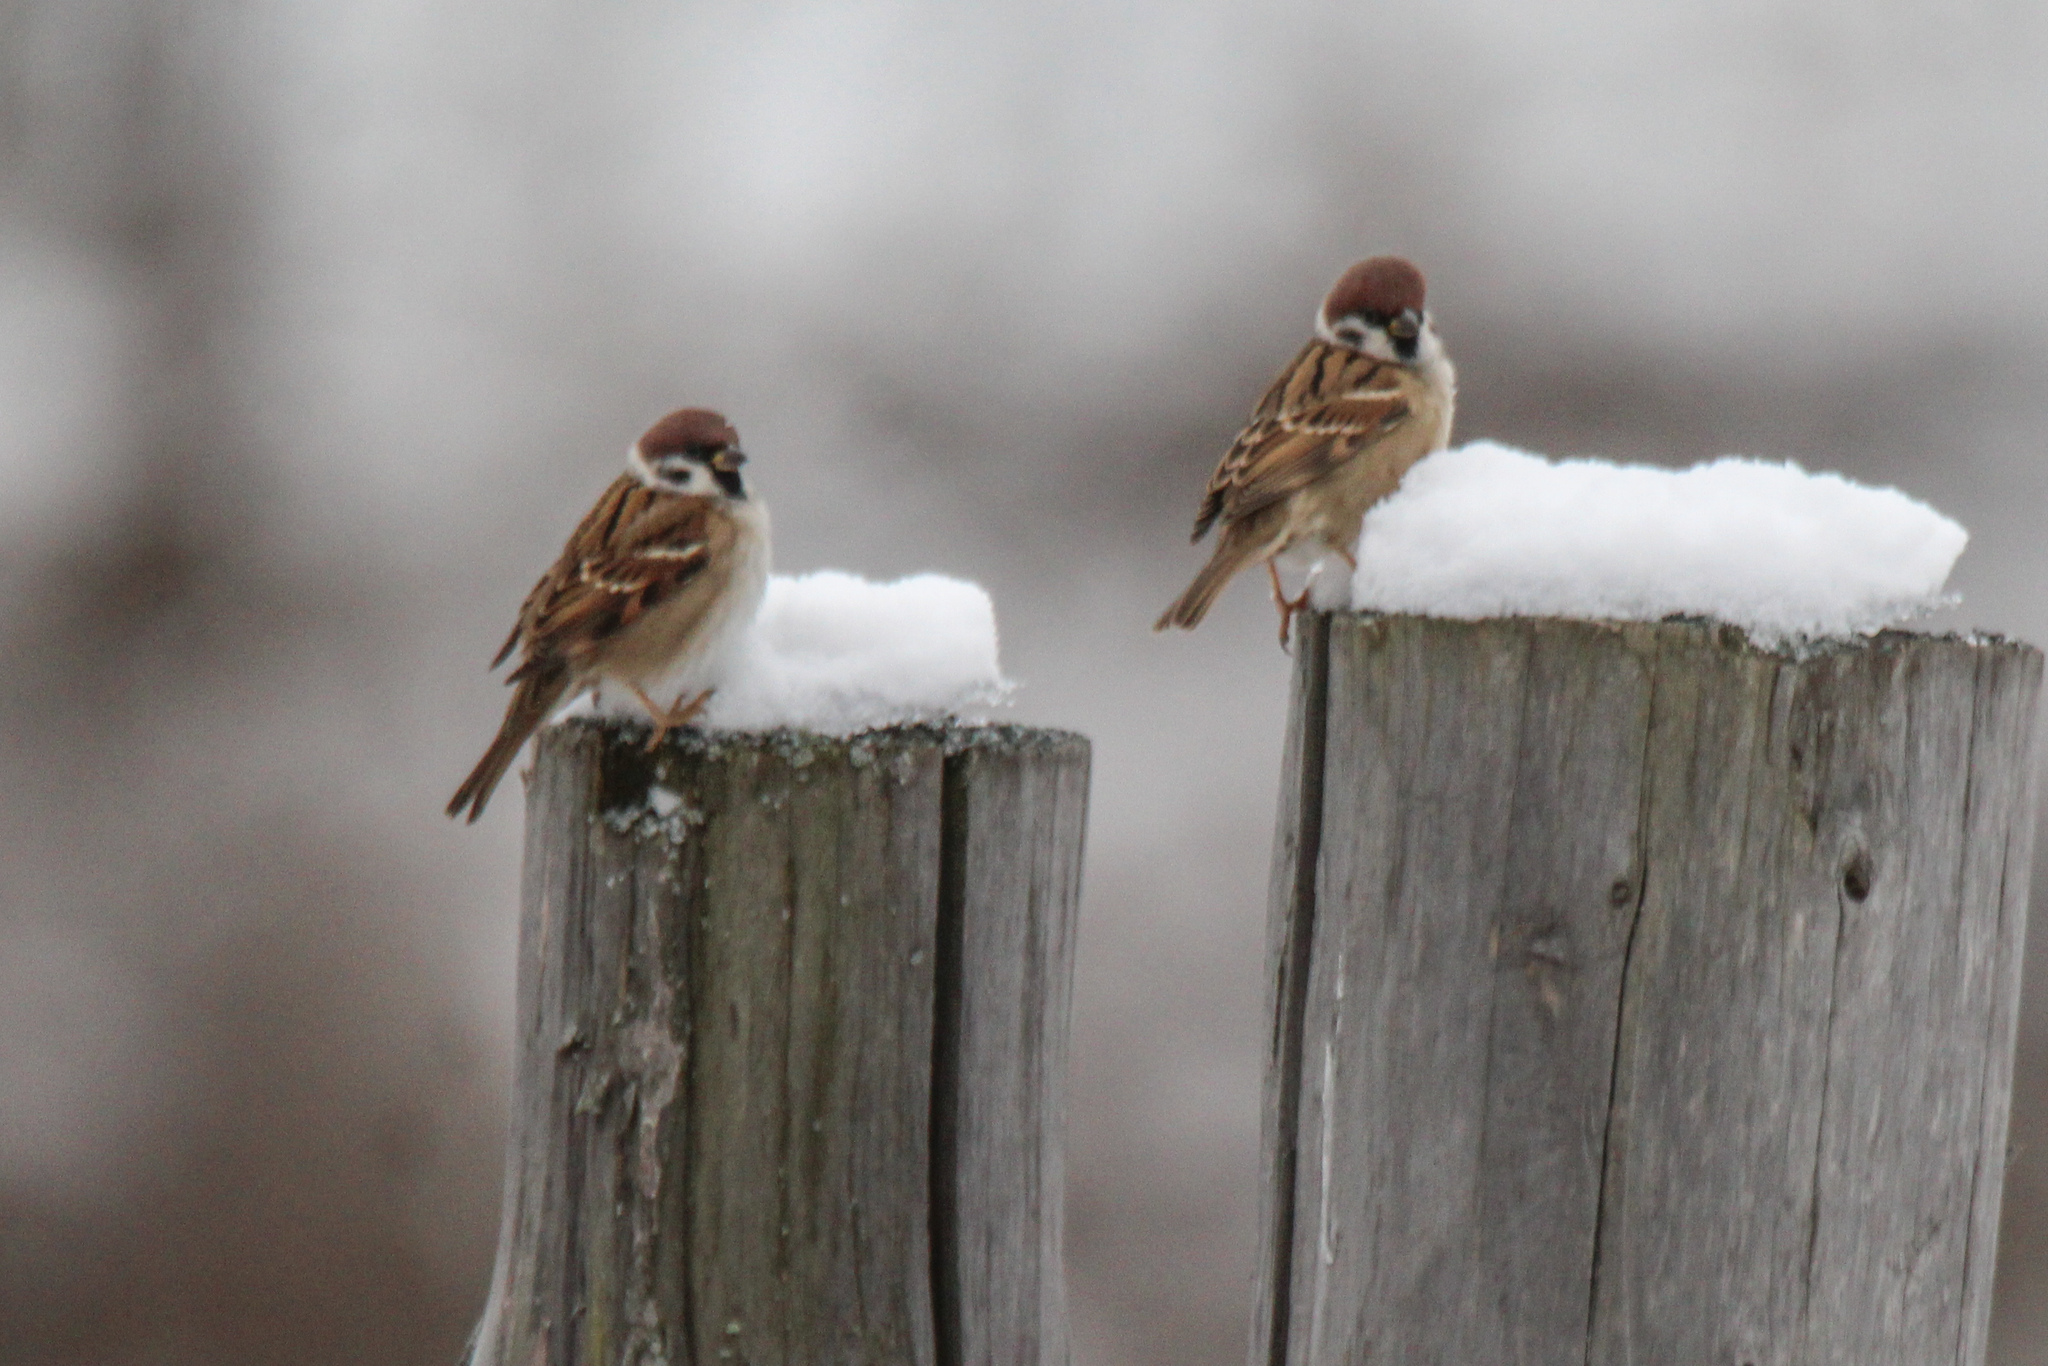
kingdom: Animalia
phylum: Chordata
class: Aves
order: Passeriformes
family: Passeridae
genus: Passer
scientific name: Passer montanus
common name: Eurasian tree sparrow
